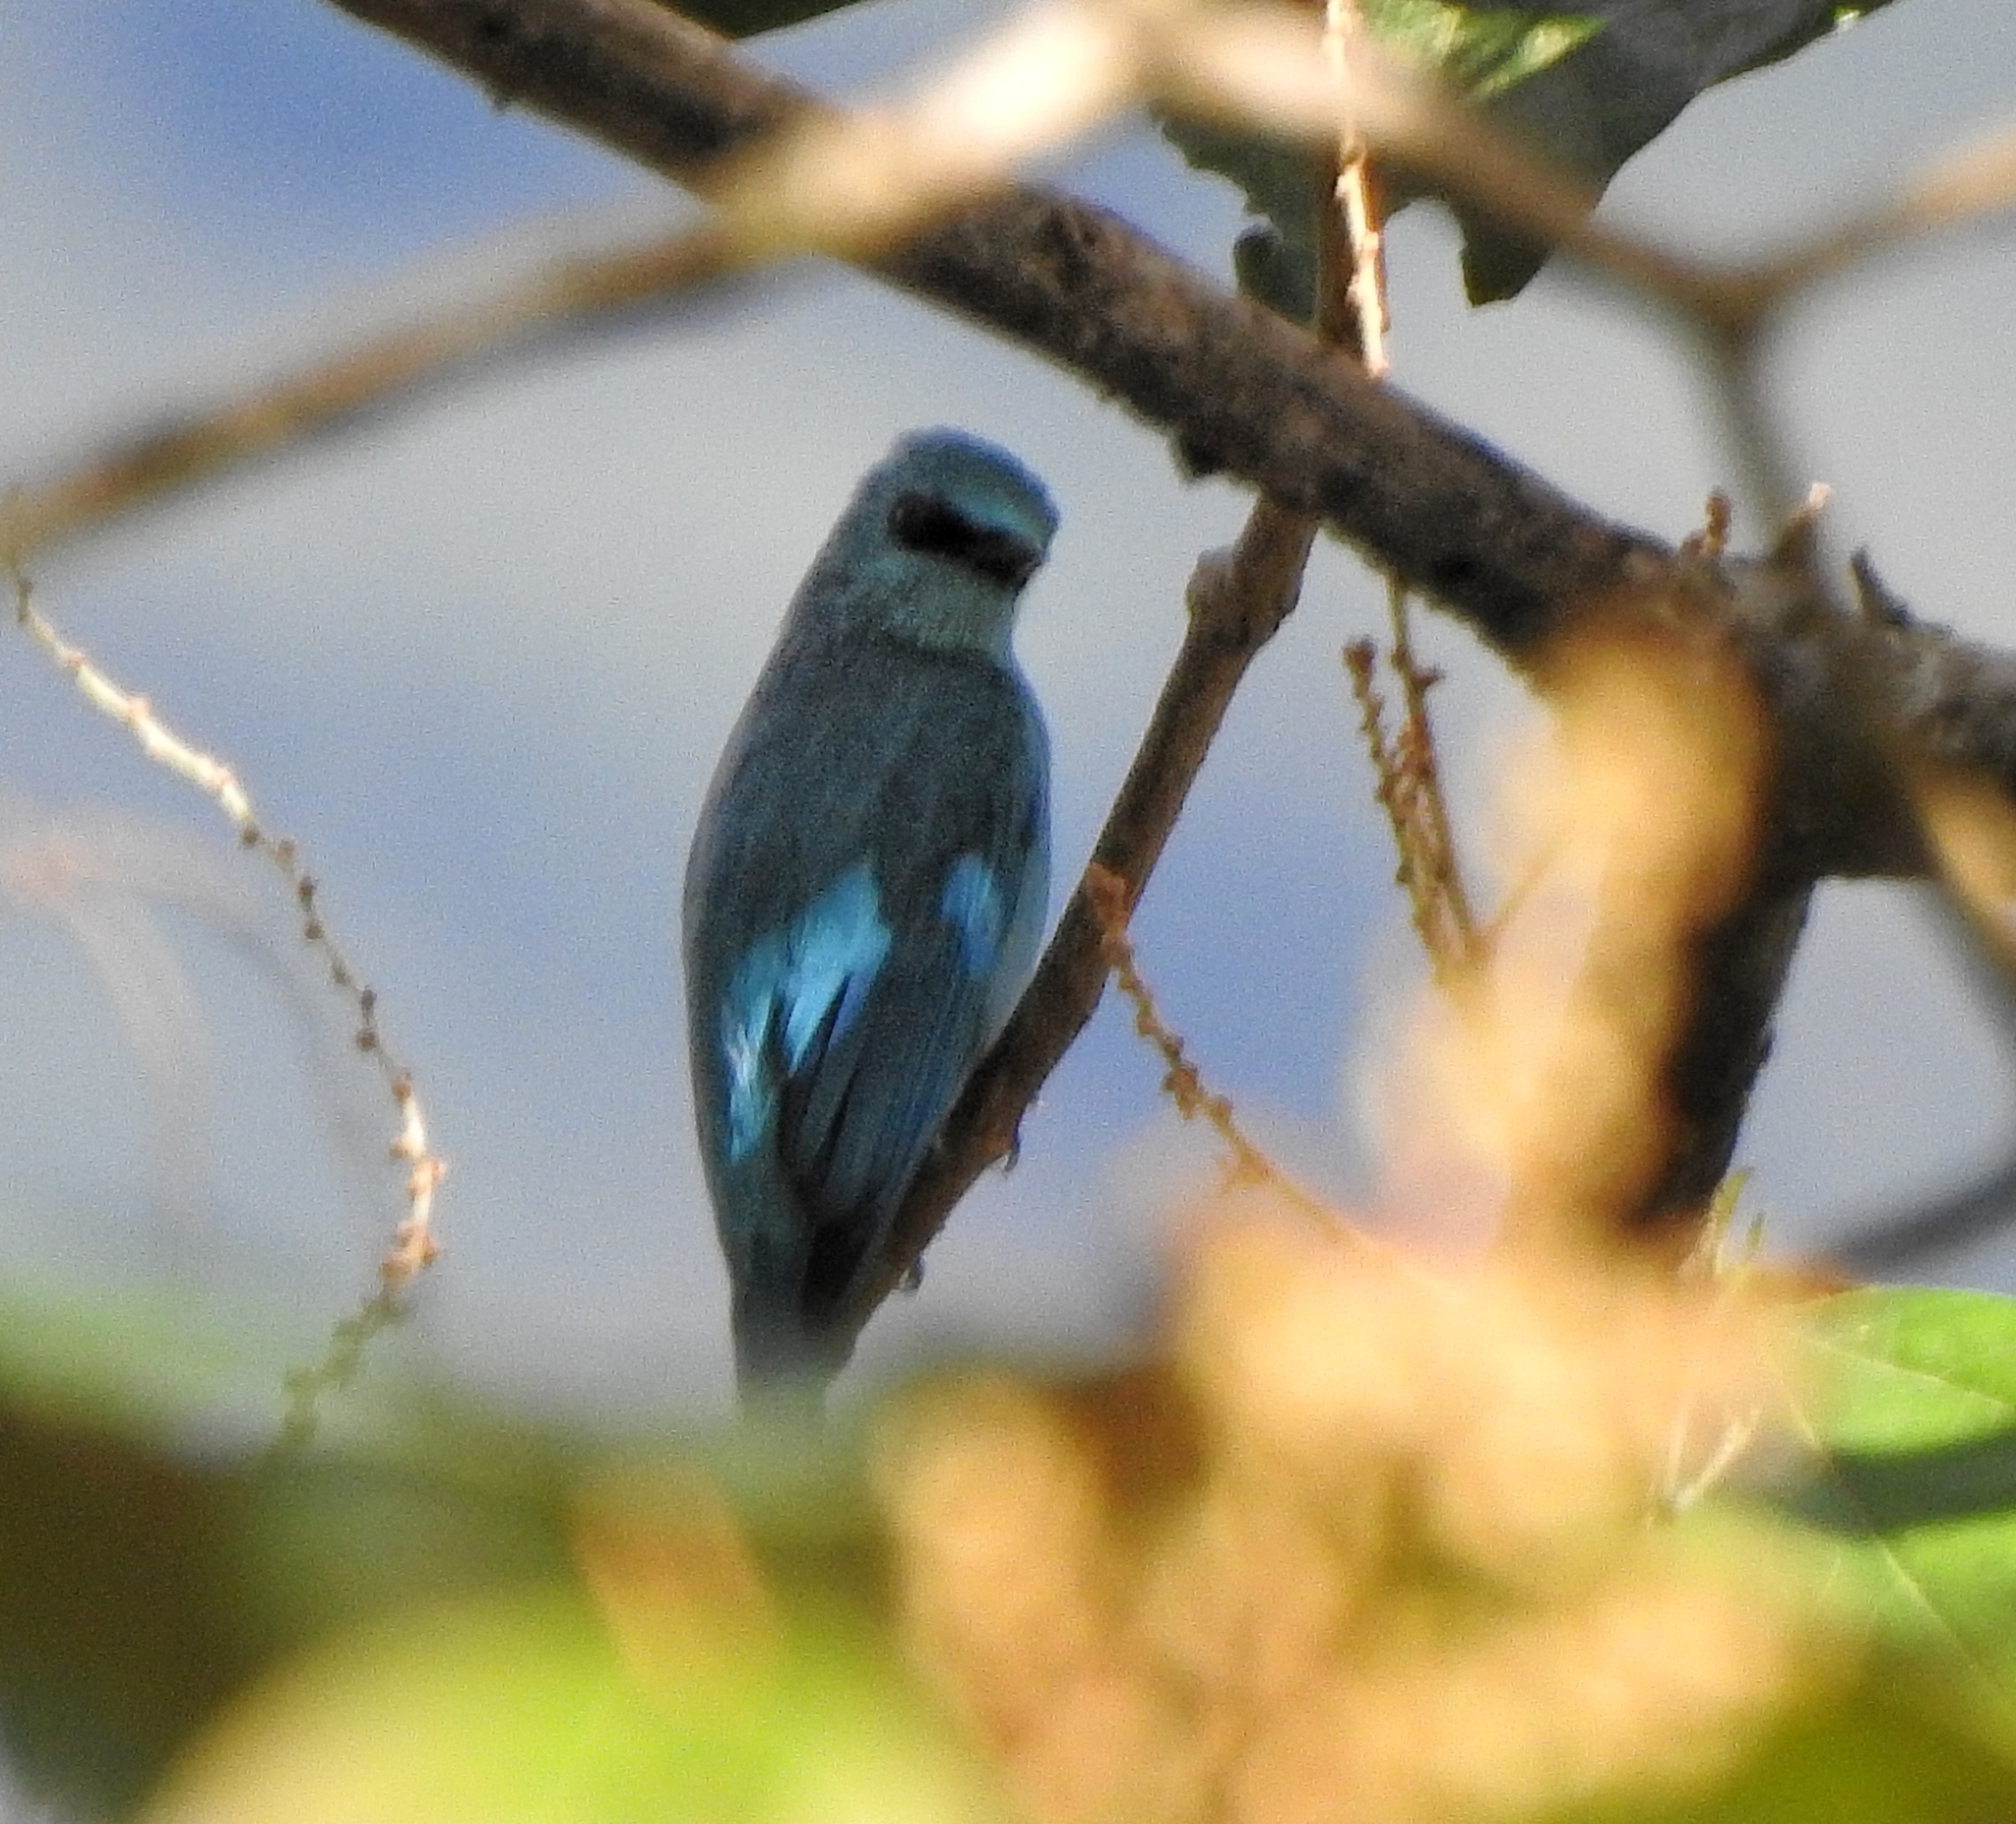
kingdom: Animalia
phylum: Chordata
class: Aves
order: Passeriformes
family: Muscicapidae
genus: Eumyias
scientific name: Eumyias thalassinus
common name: Verditer flycatcher
